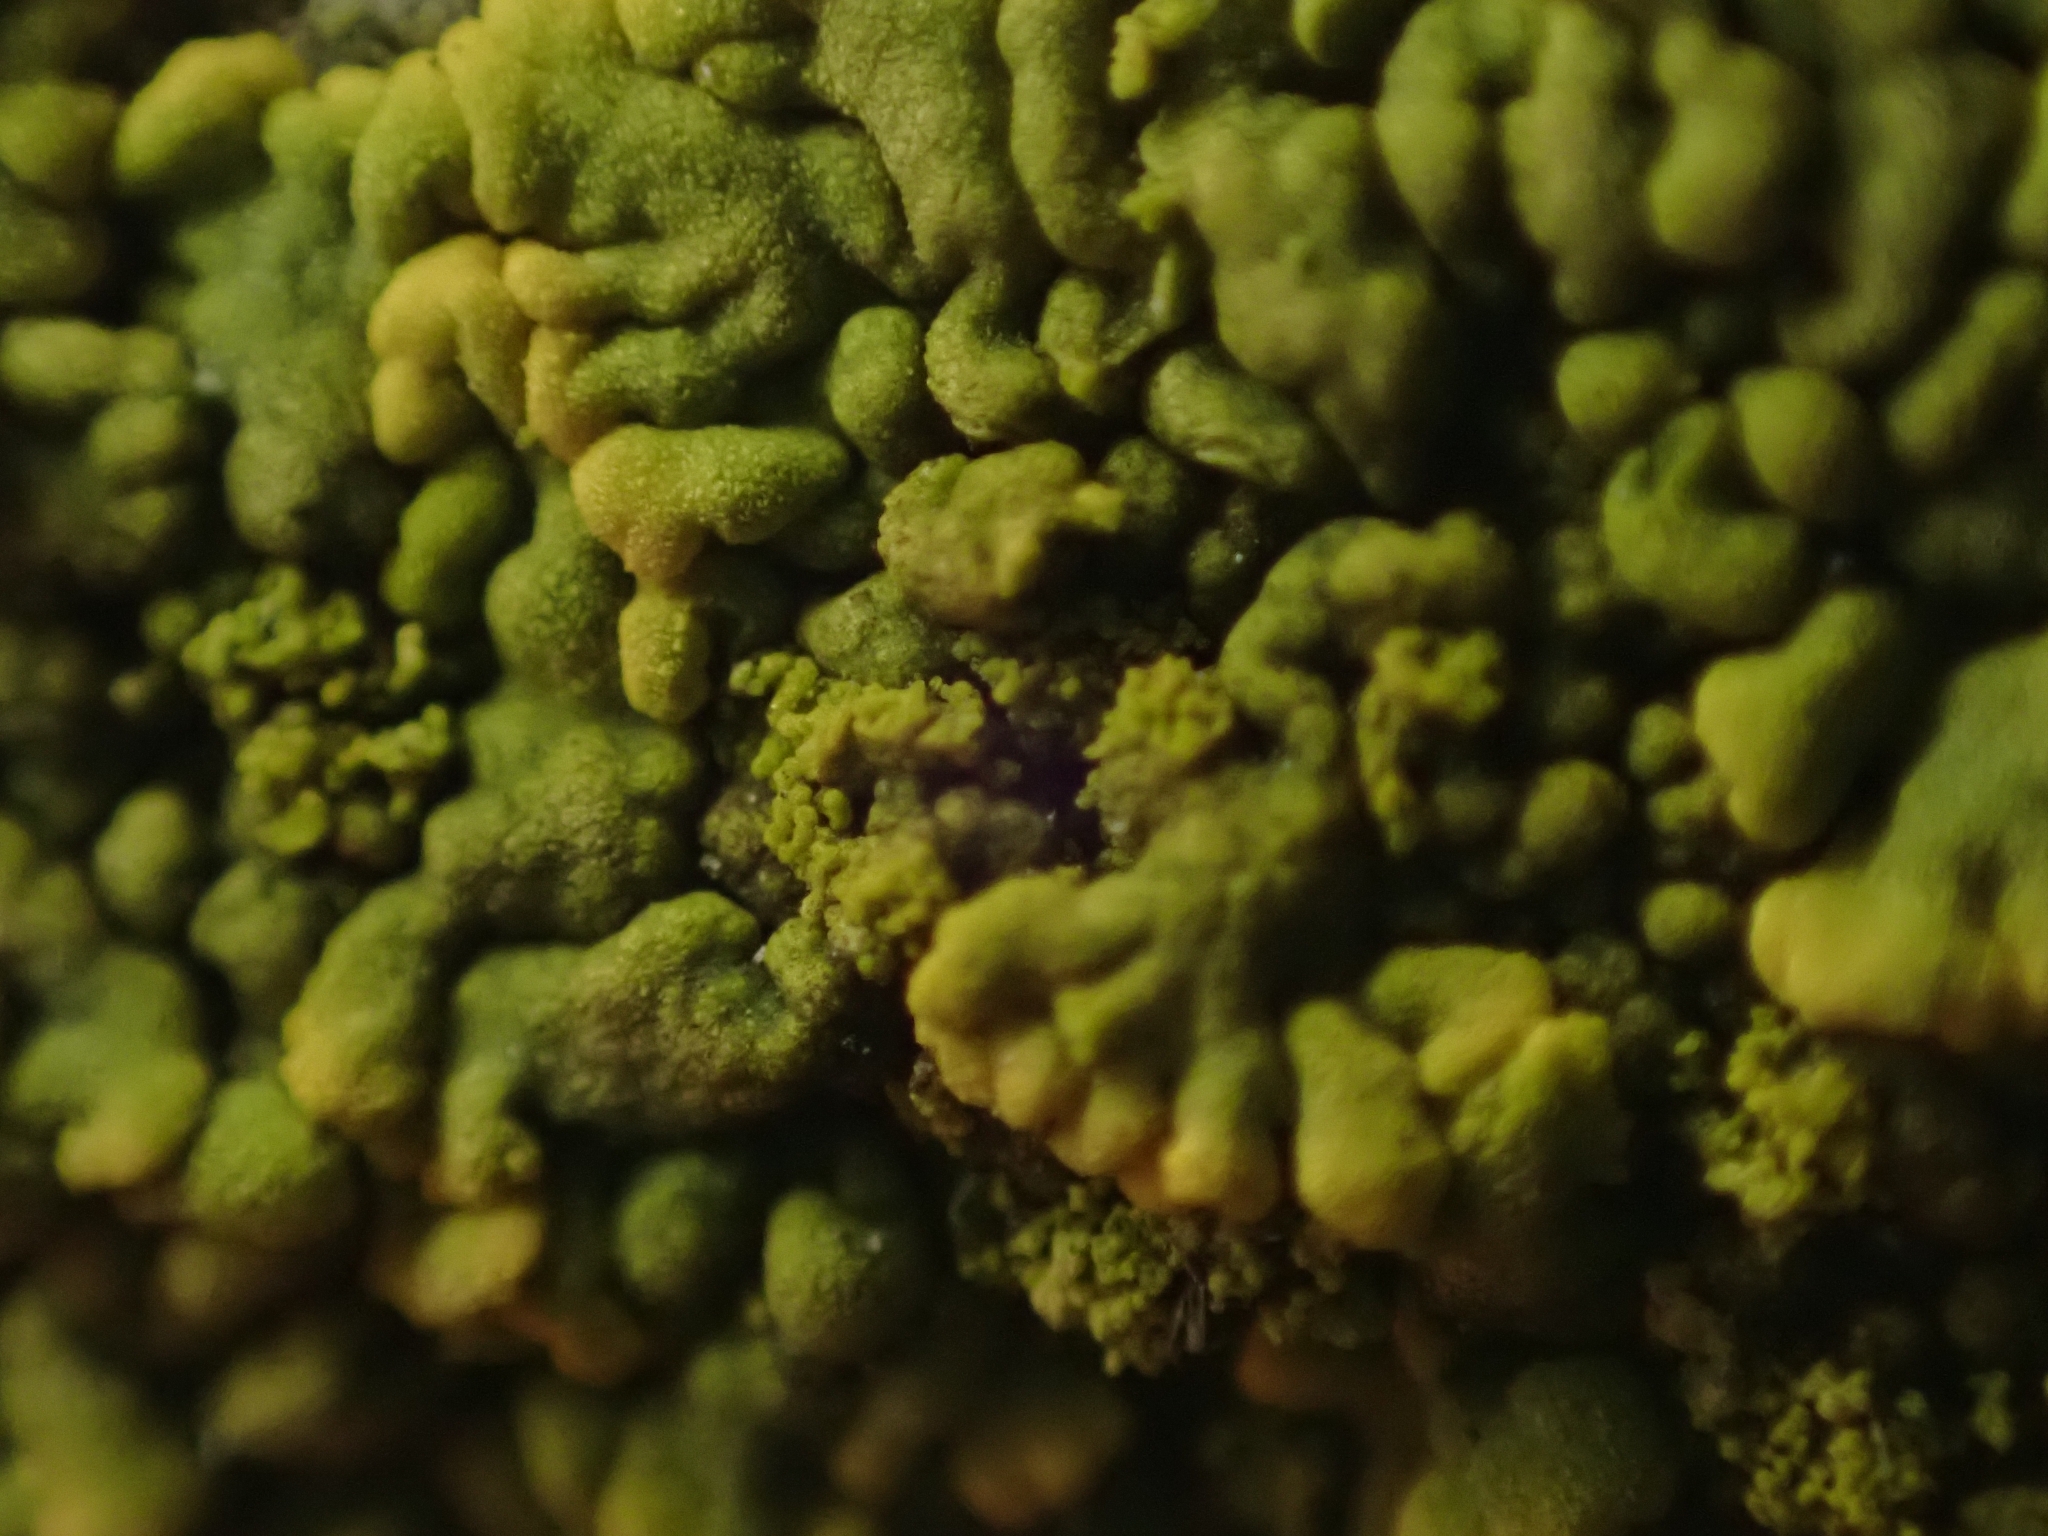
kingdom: Fungi
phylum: Ascomycota
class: Lecanoromycetes
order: Teloschistales
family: Teloschistaceae
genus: Calogaya
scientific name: Calogaya decipiens
